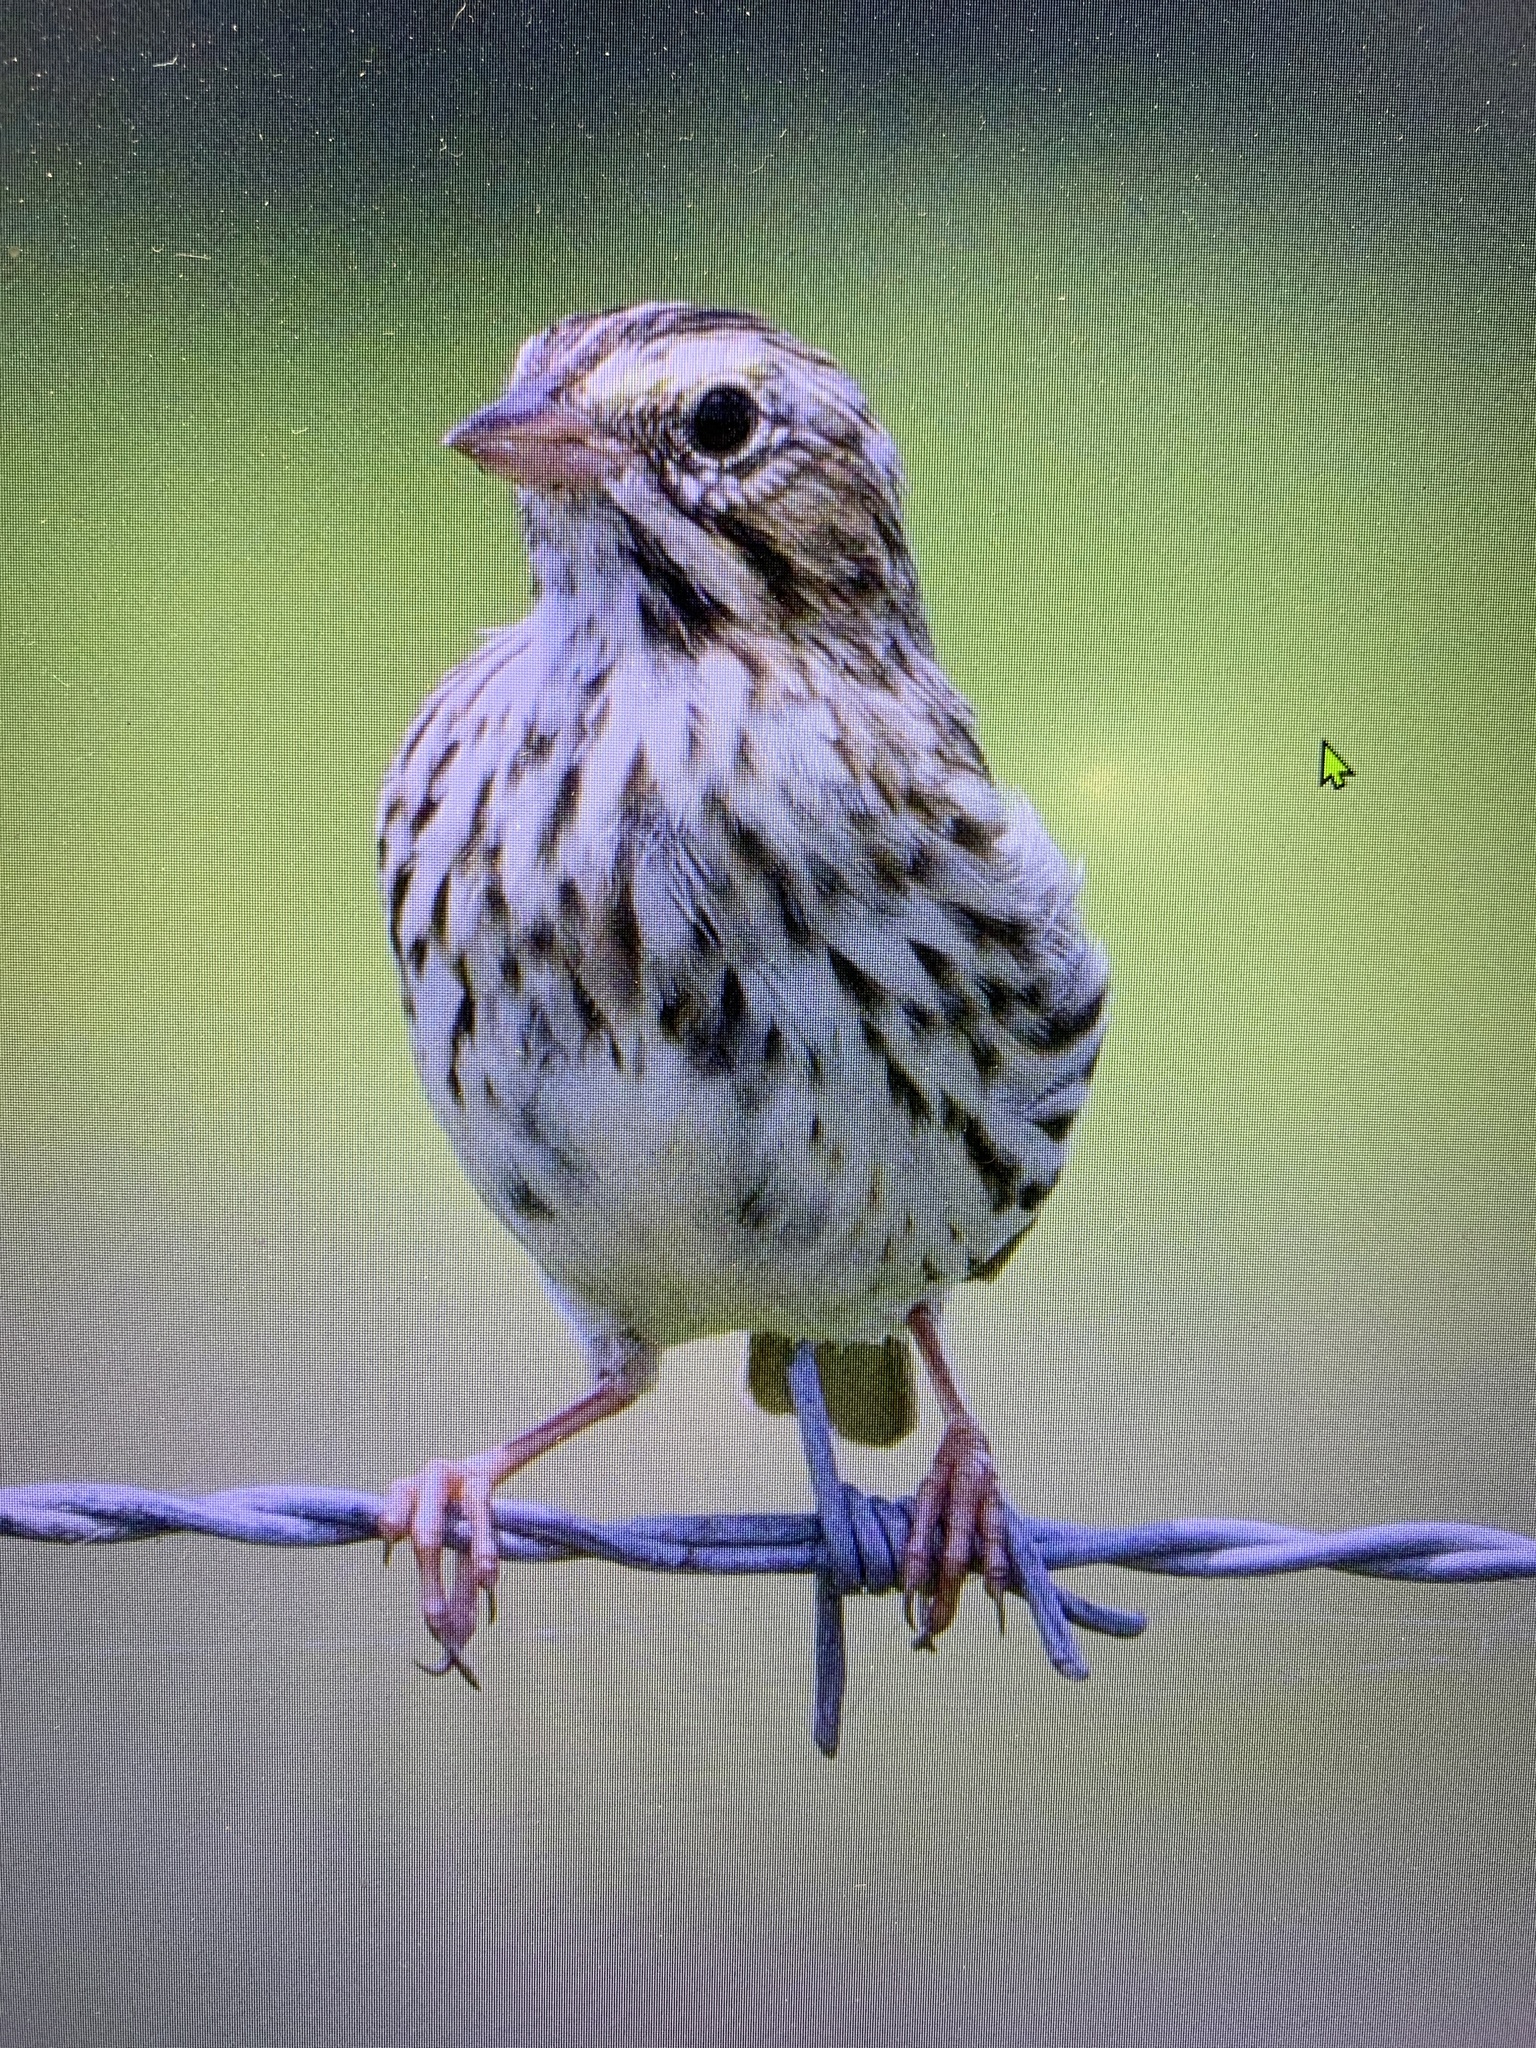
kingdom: Animalia
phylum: Chordata
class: Aves
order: Passeriformes
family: Passerellidae
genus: Passerculus
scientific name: Passerculus sandwichensis
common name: Savannah sparrow
